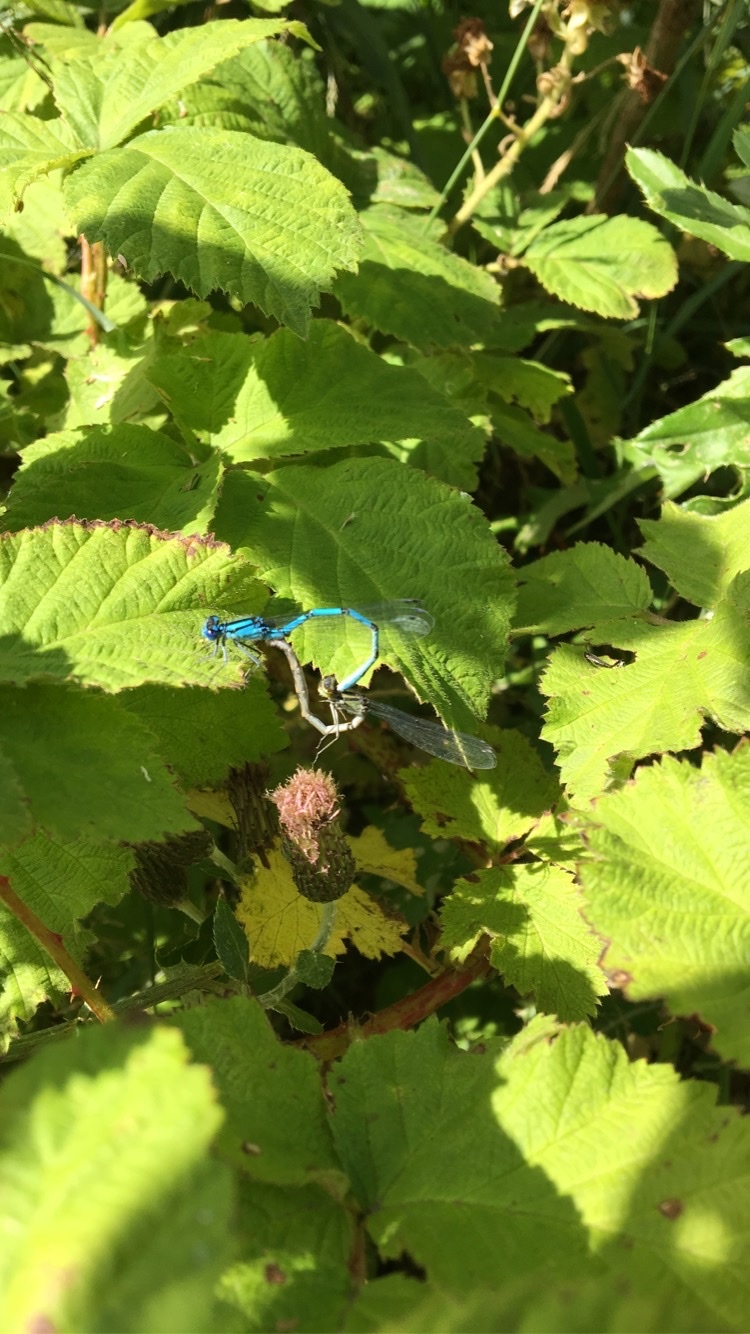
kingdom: Animalia
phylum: Arthropoda
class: Insecta
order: Odonata
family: Coenagrionidae
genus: Enallagma
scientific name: Enallagma cyathigerum
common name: Common blue damselfly
